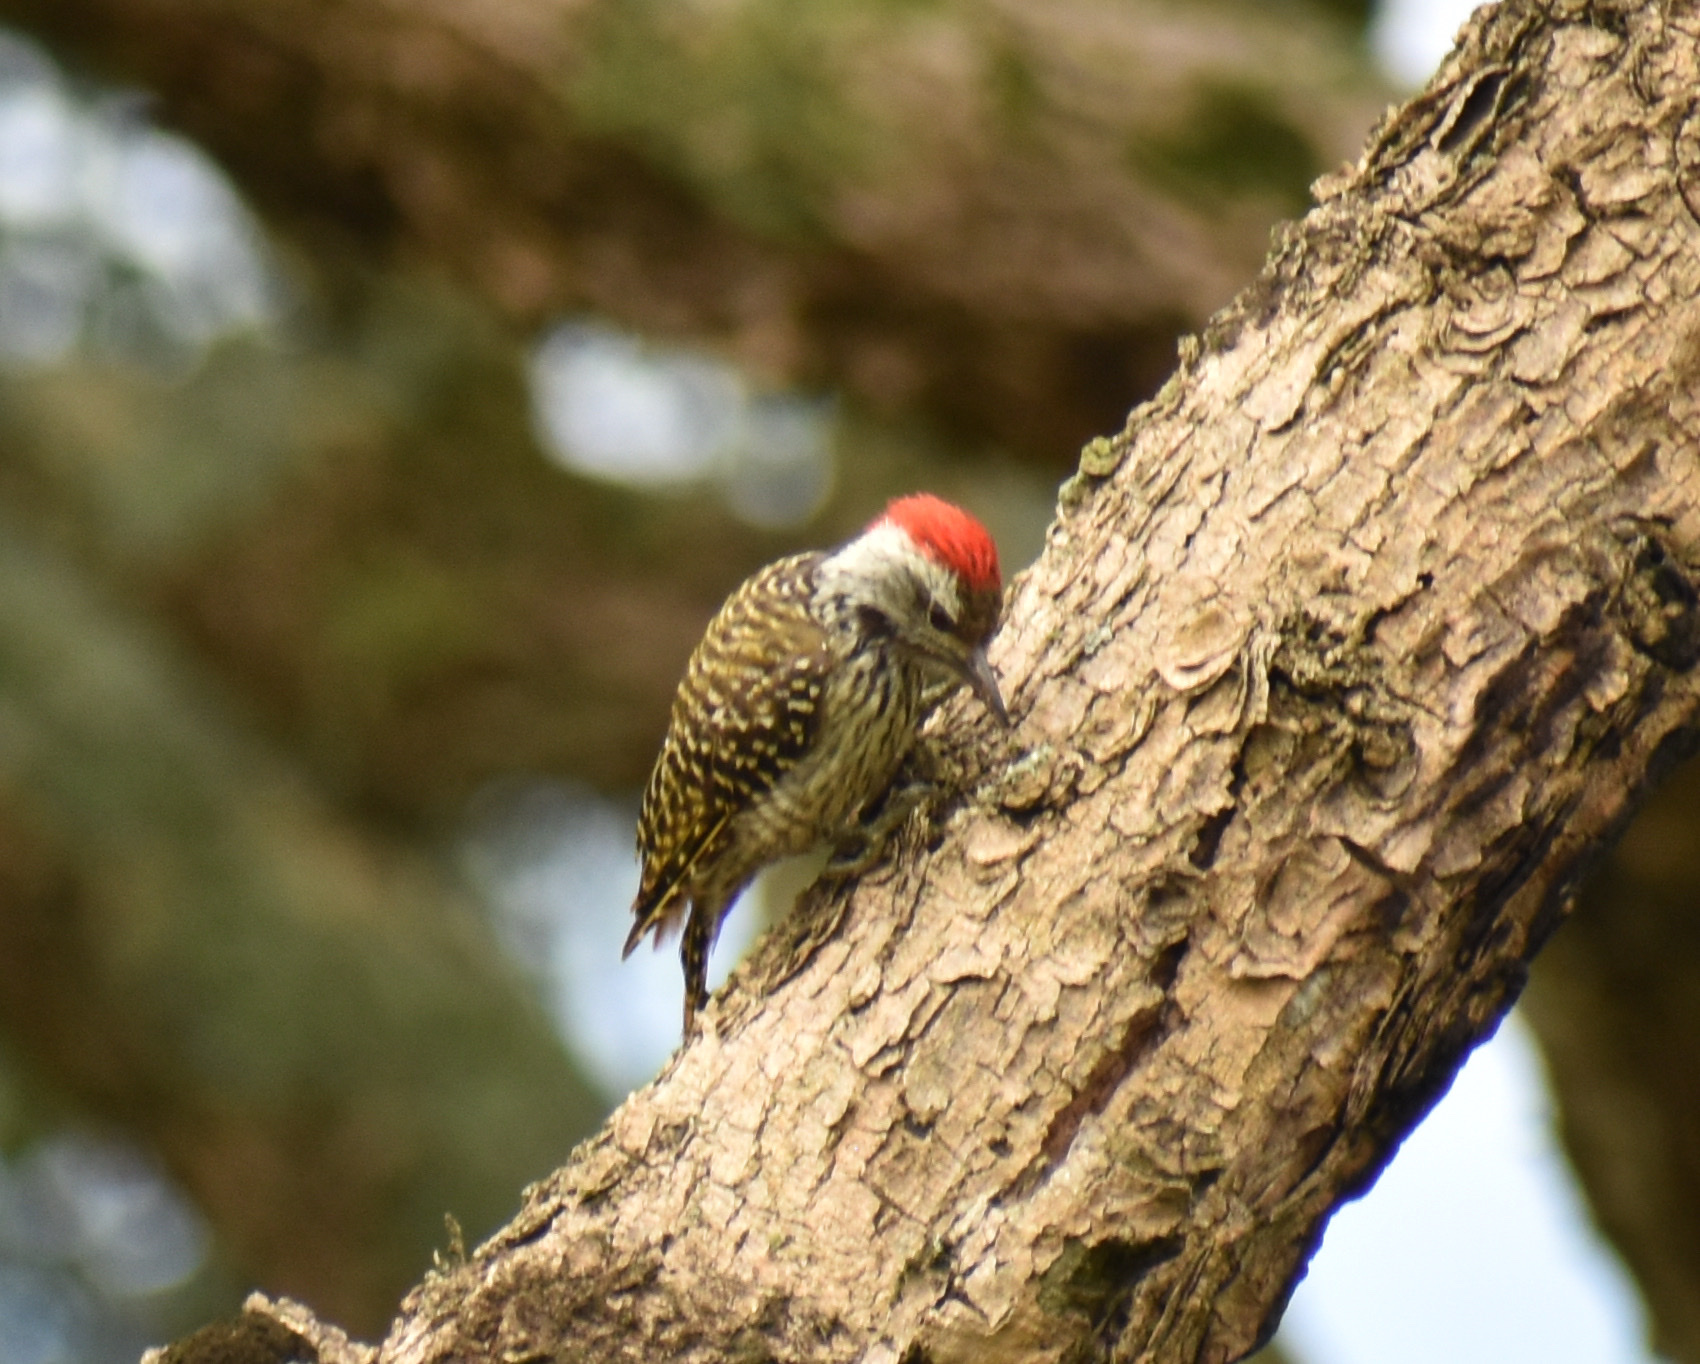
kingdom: Animalia
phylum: Chordata
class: Aves
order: Piciformes
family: Picidae
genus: Dendropicos
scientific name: Dendropicos fuscescens
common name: Cardinal woodpecker
